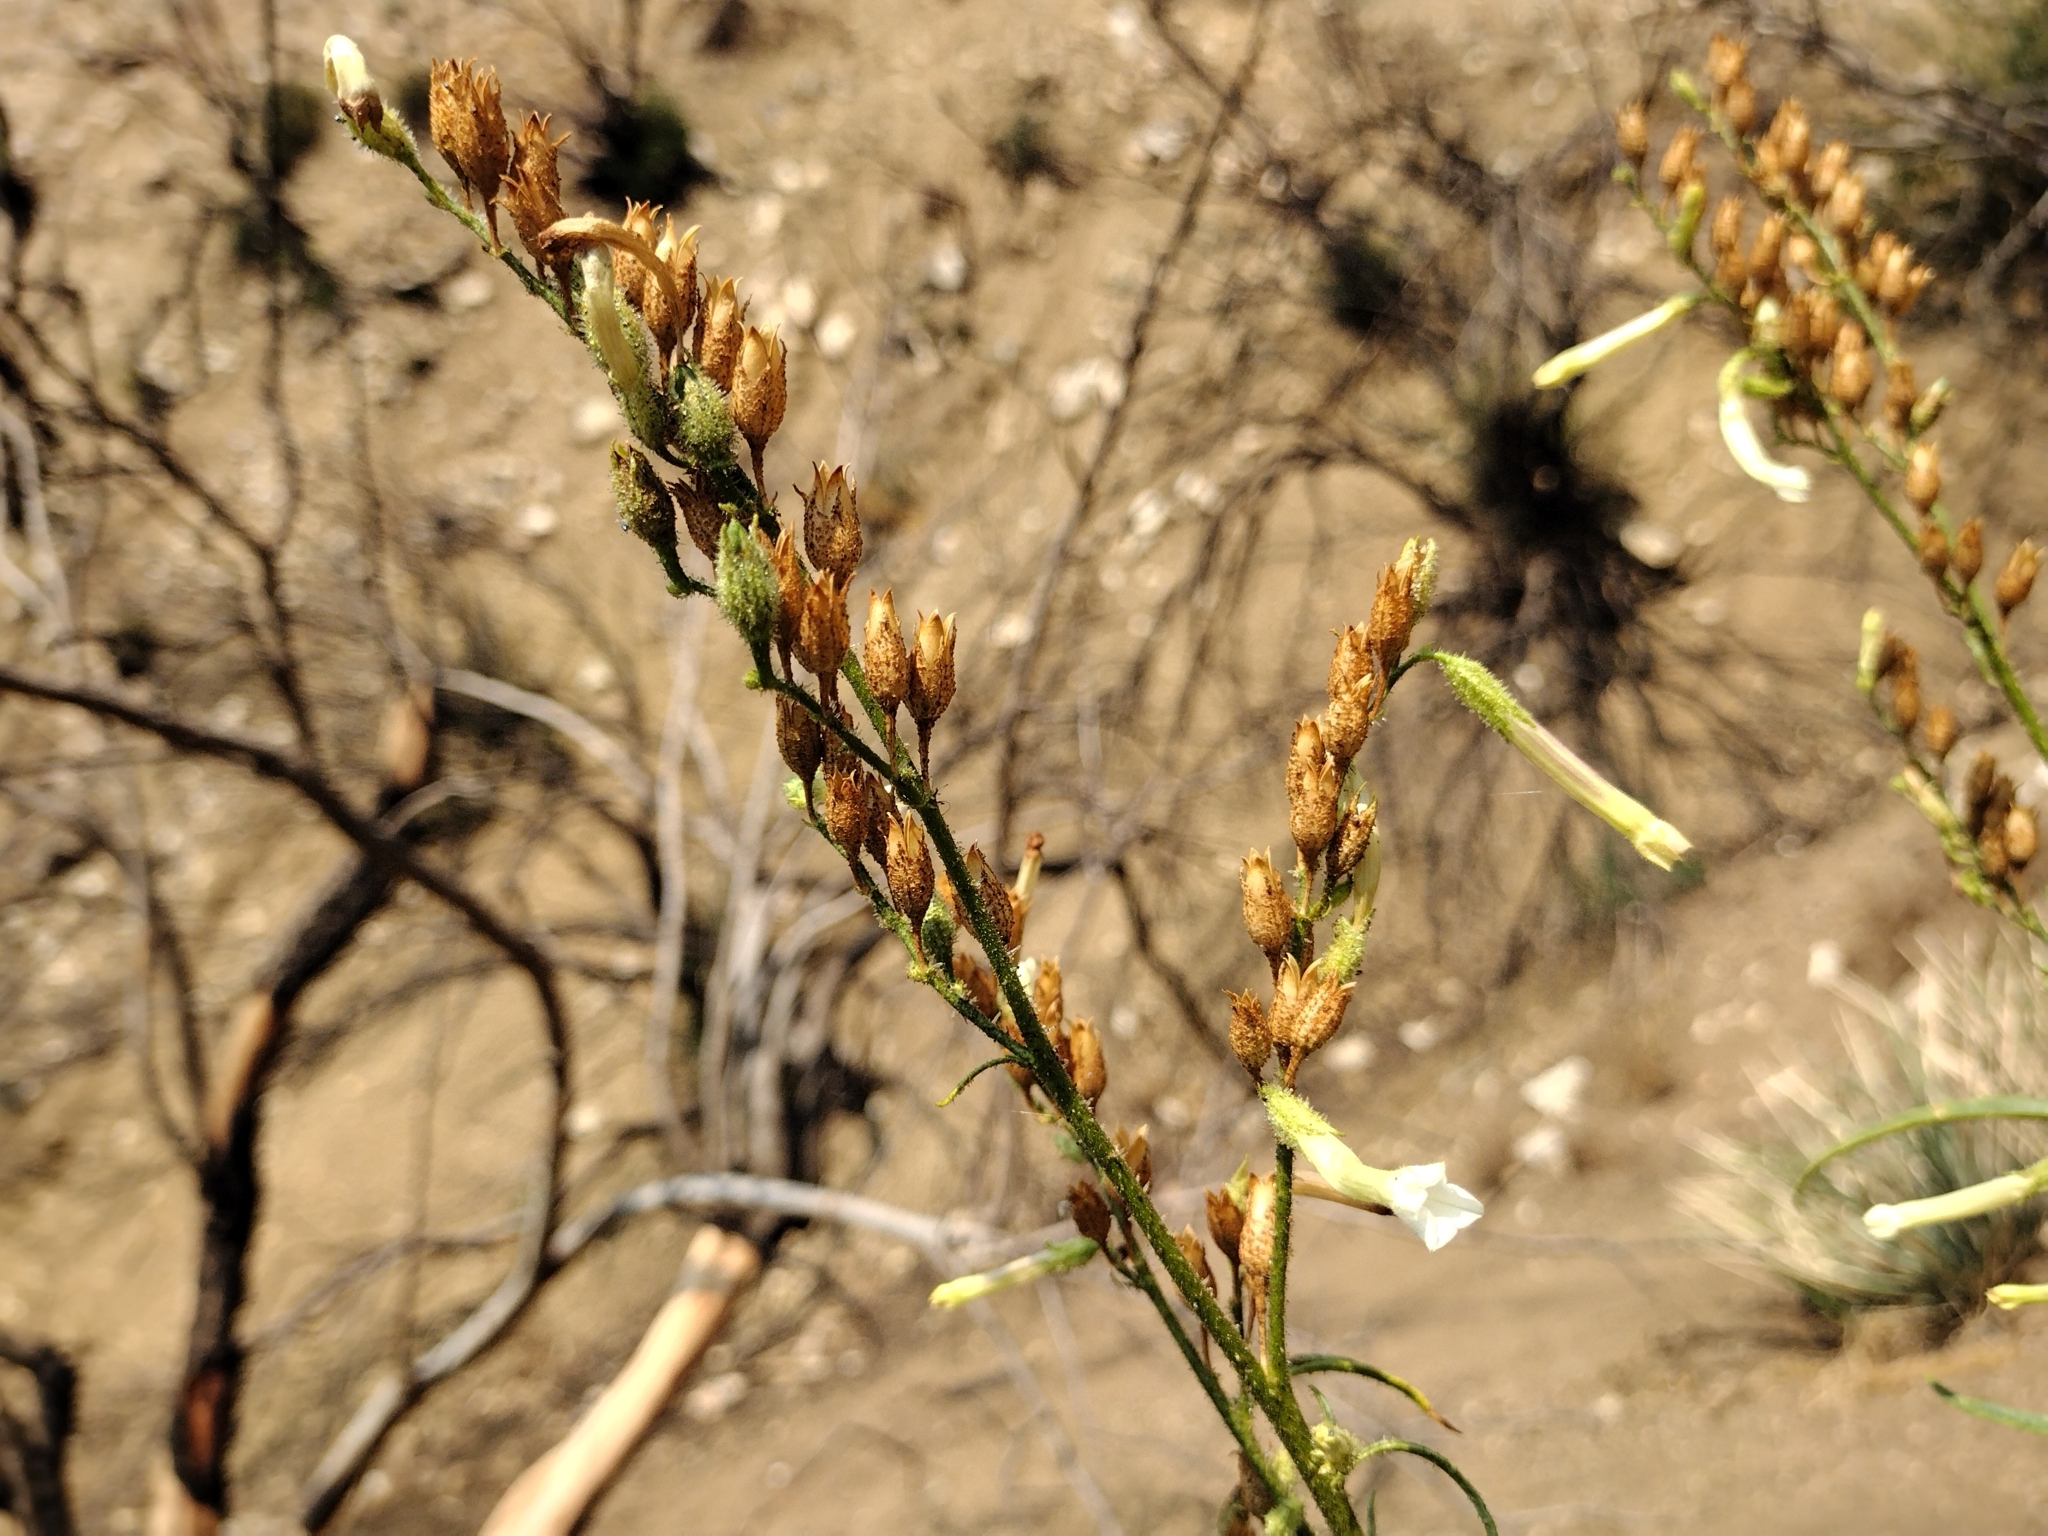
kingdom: Plantae
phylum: Tracheophyta
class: Magnoliopsida
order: Solanales
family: Solanaceae
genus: Nicotiana
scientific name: Nicotiana attenuata
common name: Coyote tobacco
